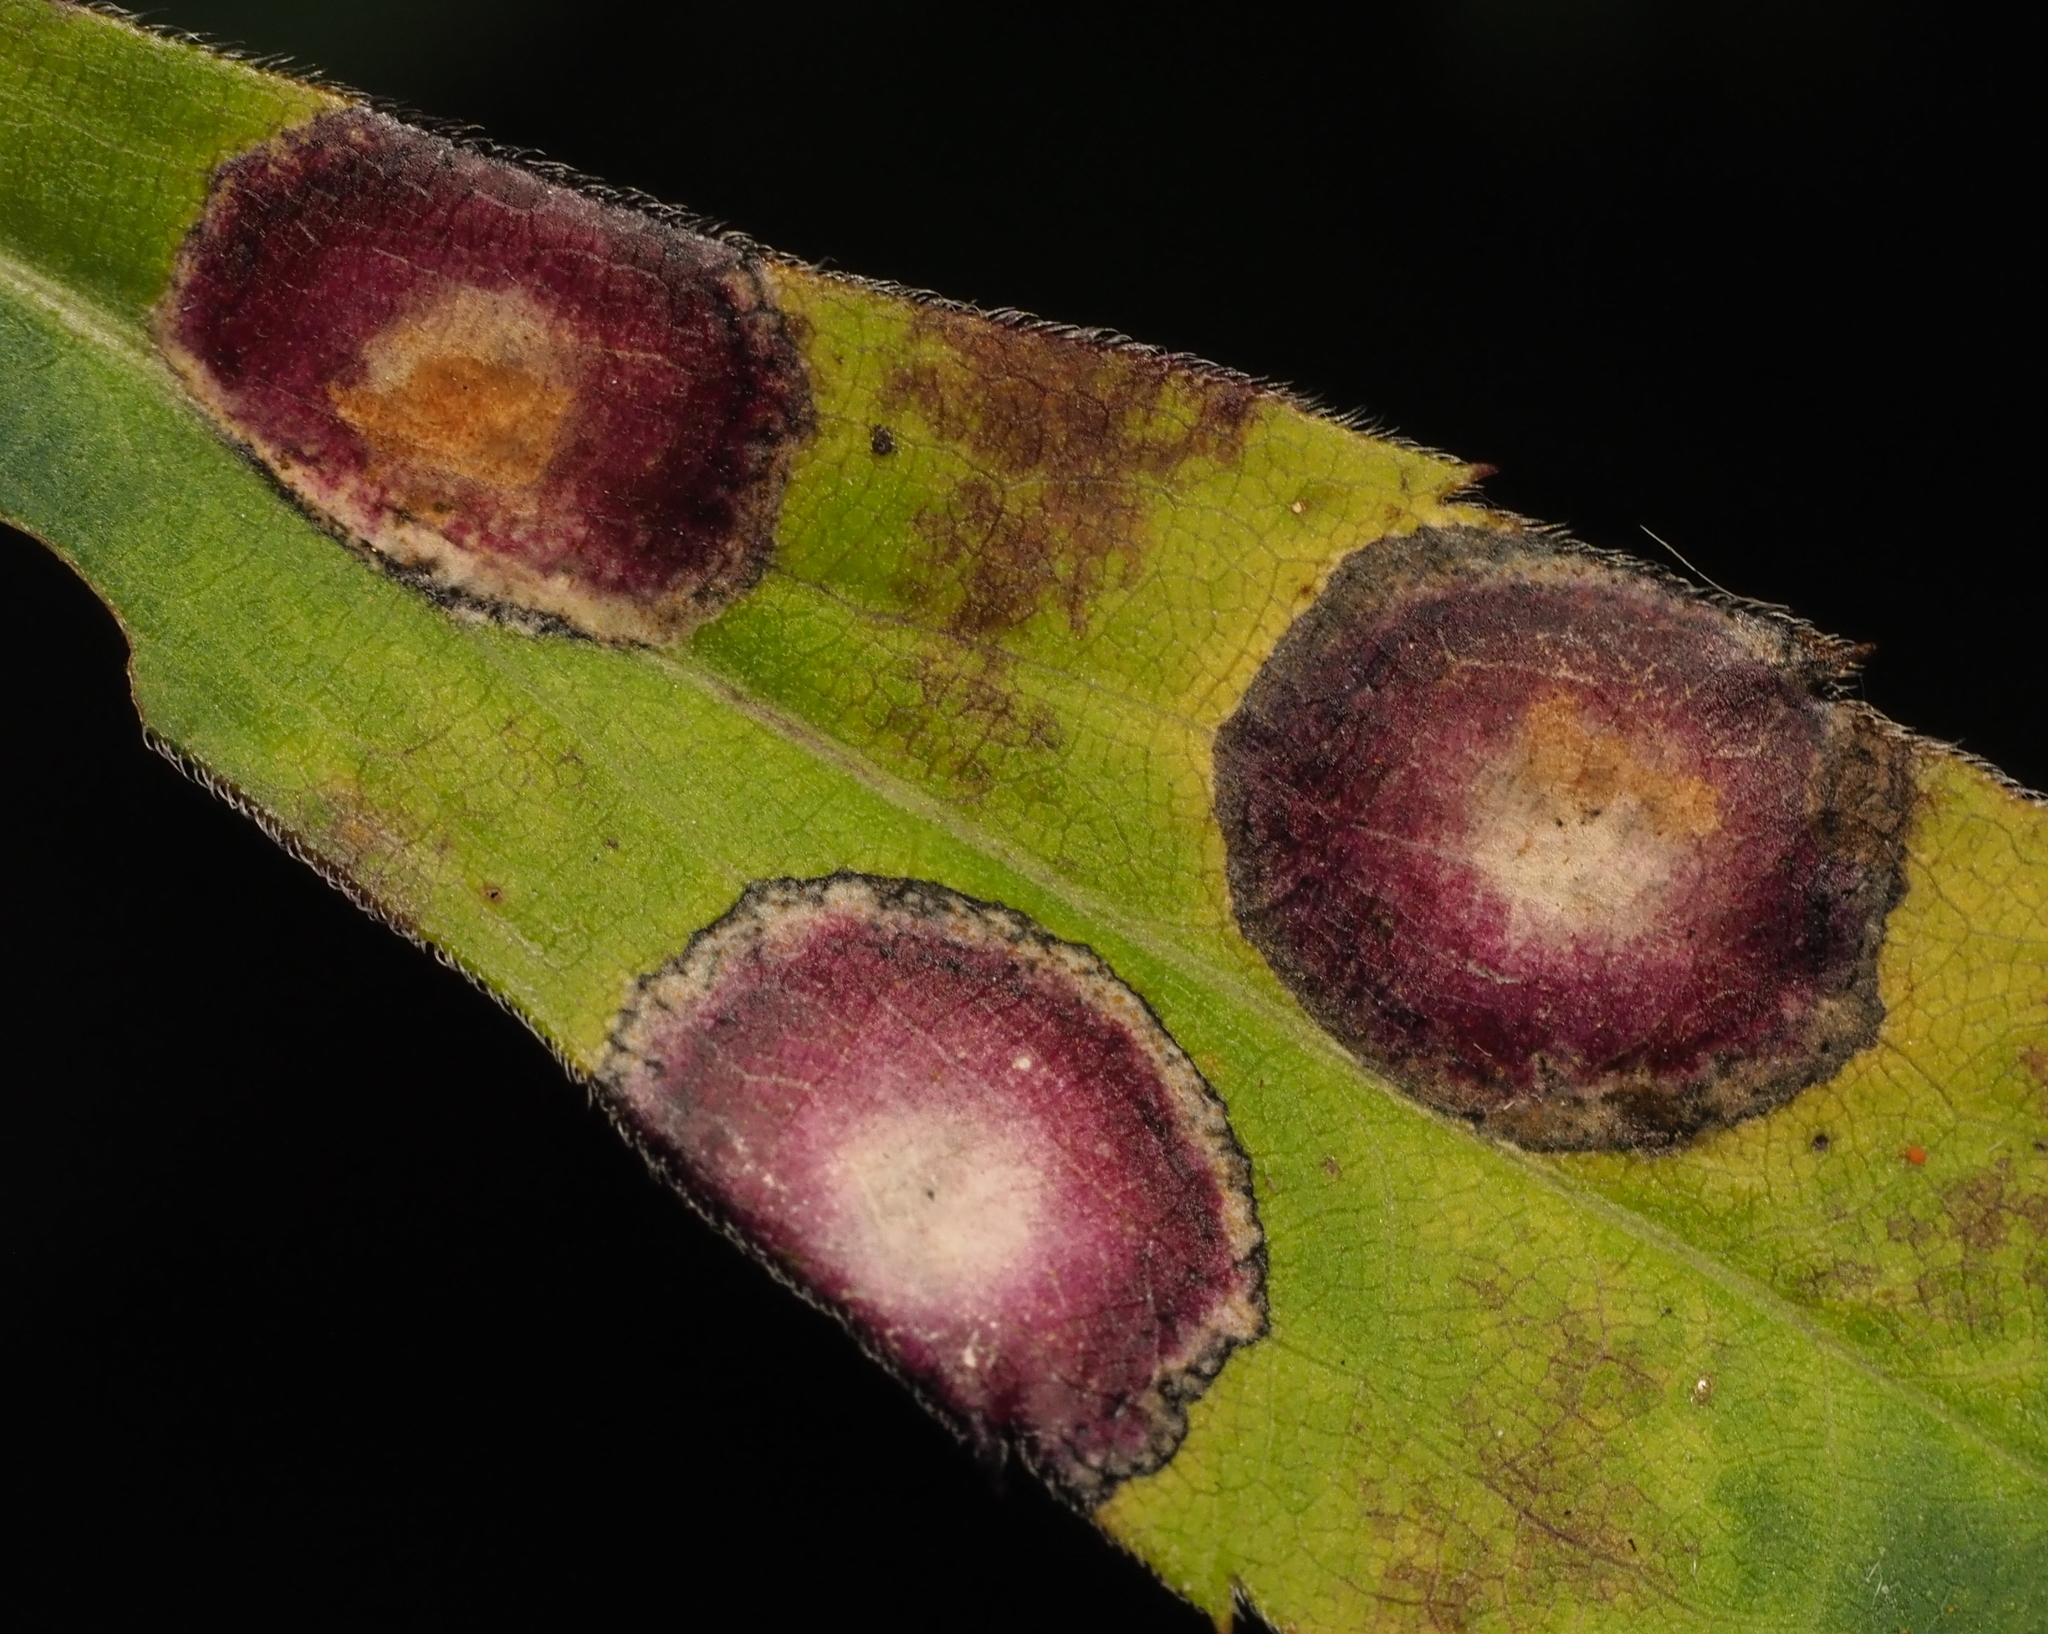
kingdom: Animalia
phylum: Arthropoda
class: Insecta
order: Diptera
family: Cecidomyiidae
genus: Asteromyia
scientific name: Asteromyia carbonifera
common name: Carbonifera goldenrod gall midge
